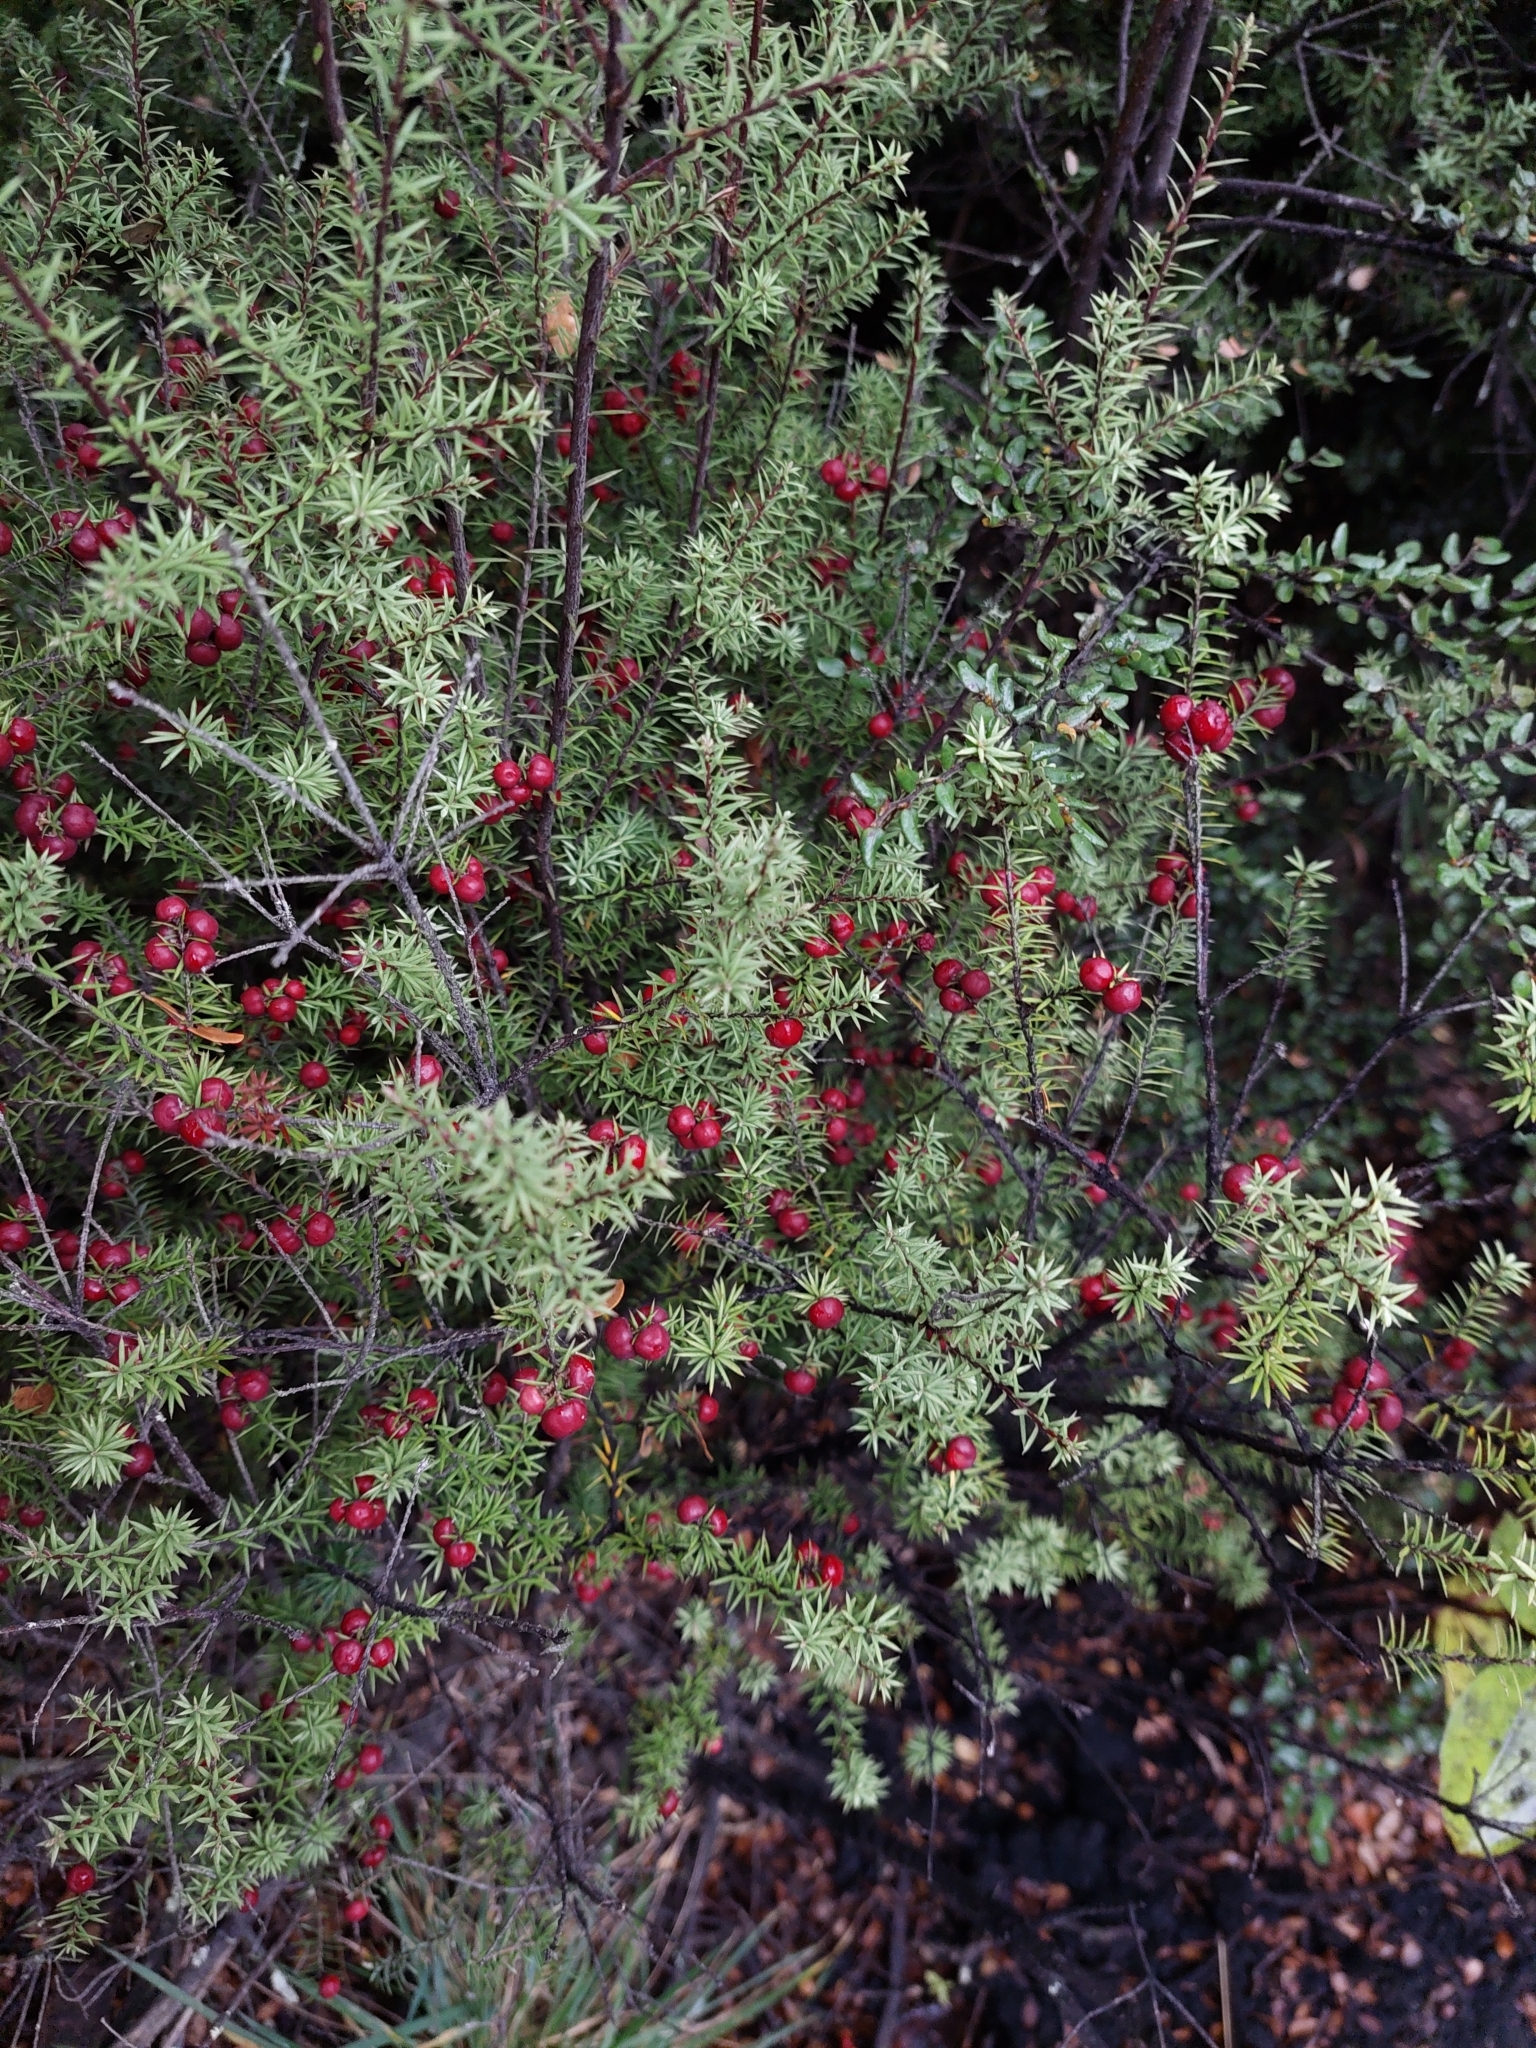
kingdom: Plantae
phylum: Tracheophyta
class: Magnoliopsida
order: Ericales
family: Ericaceae
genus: Leptecophylla
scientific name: Leptecophylla juniperina
